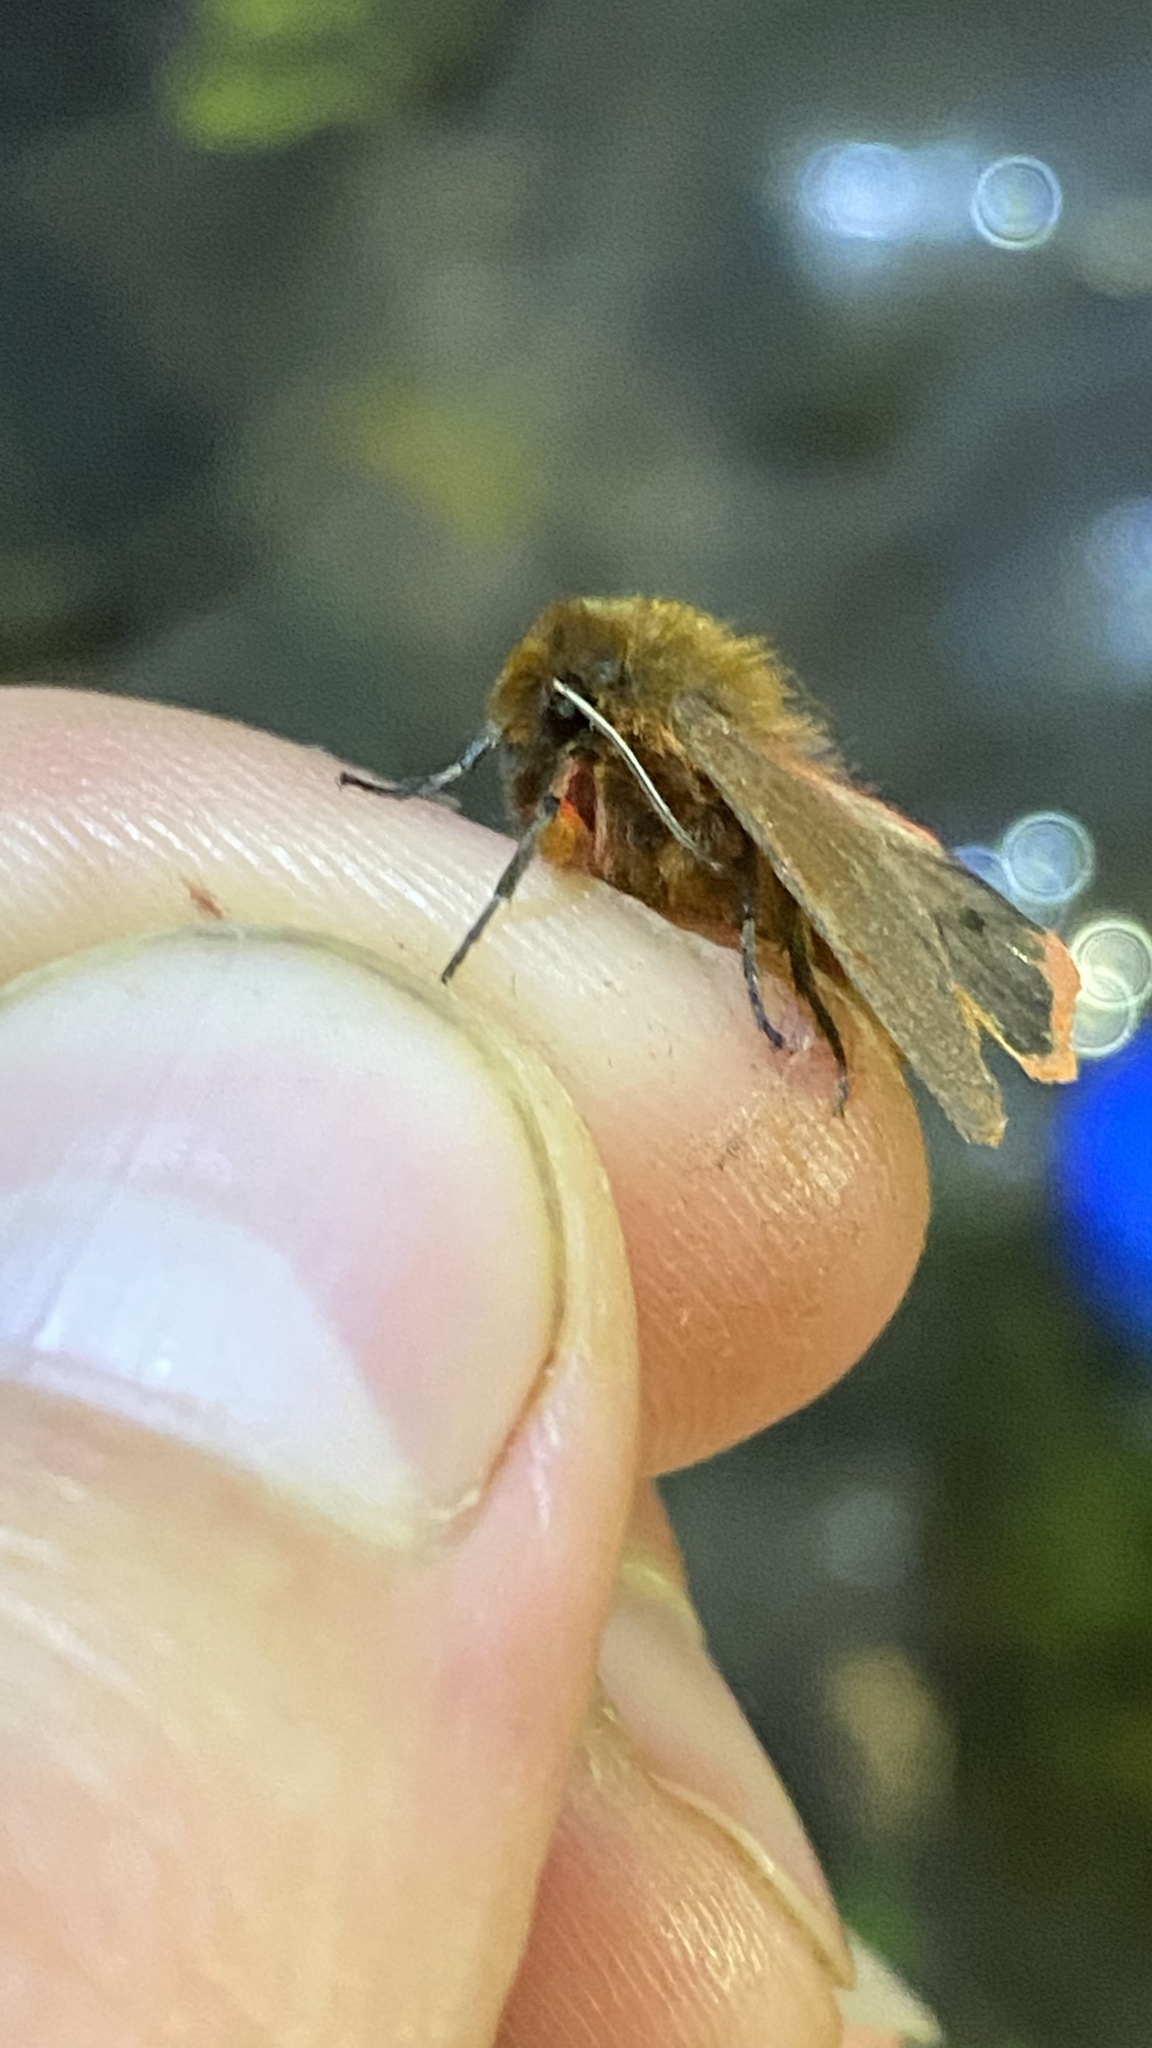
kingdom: Animalia
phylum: Arthropoda
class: Insecta
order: Lepidoptera
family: Erebidae
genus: Phragmatobia
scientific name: Phragmatobia fuliginosa
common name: Ruby tiger
